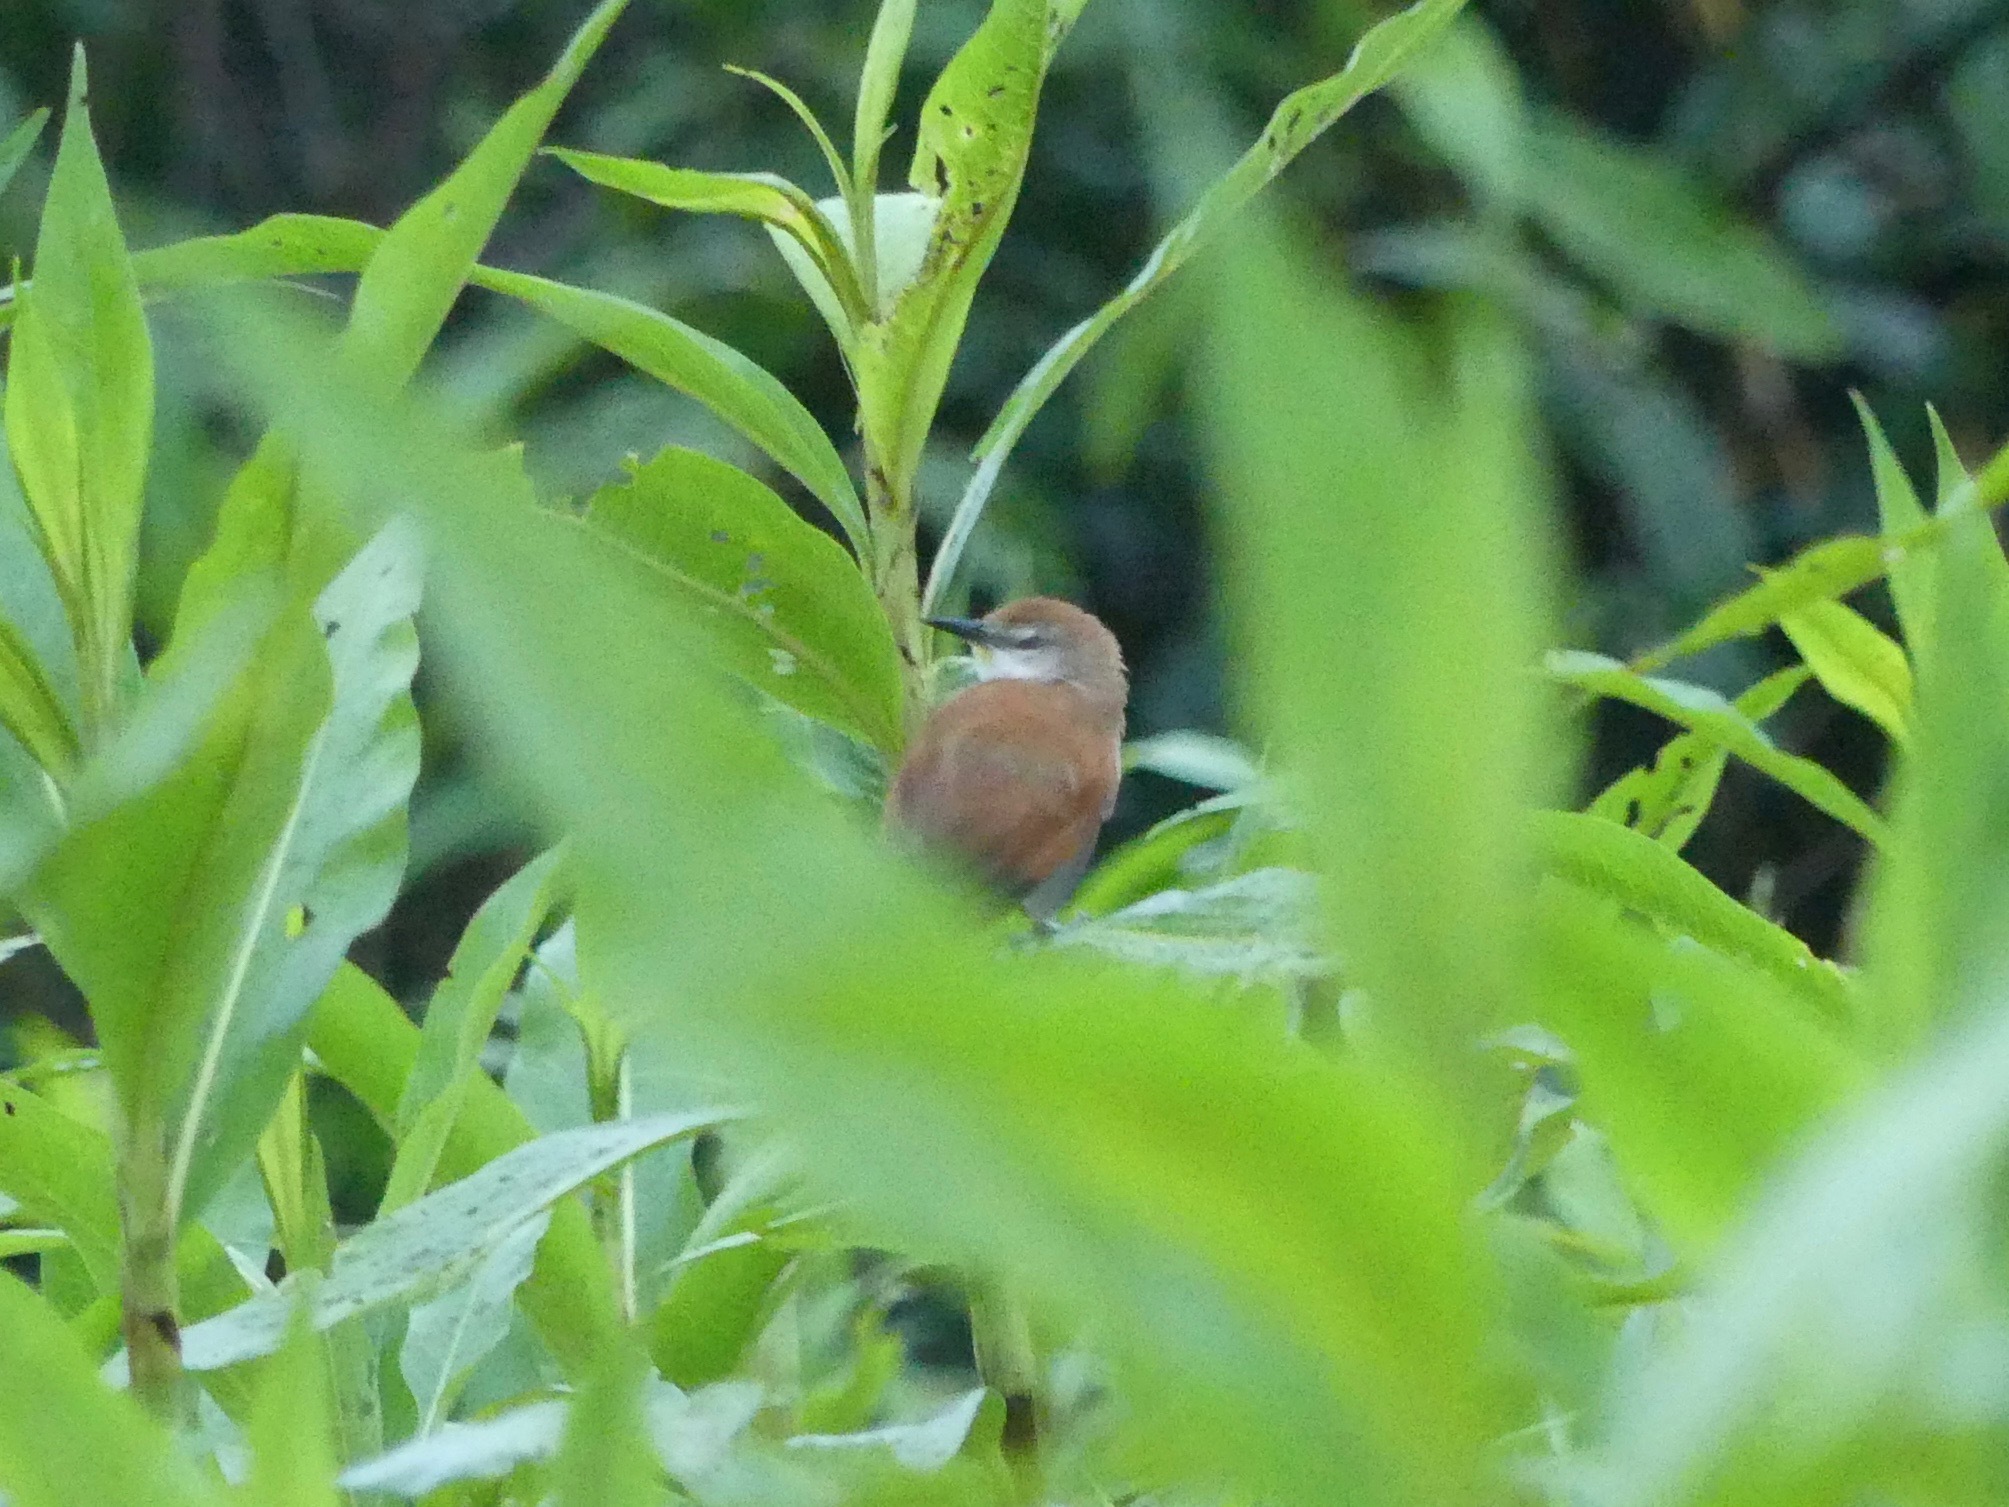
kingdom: Animalia
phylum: Chordata
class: Aves
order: Passeriformes
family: Furnariidae
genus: Certhiaxis
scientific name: Certhiaxis cinnamomeus
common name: Yellow-chinned spinetail
